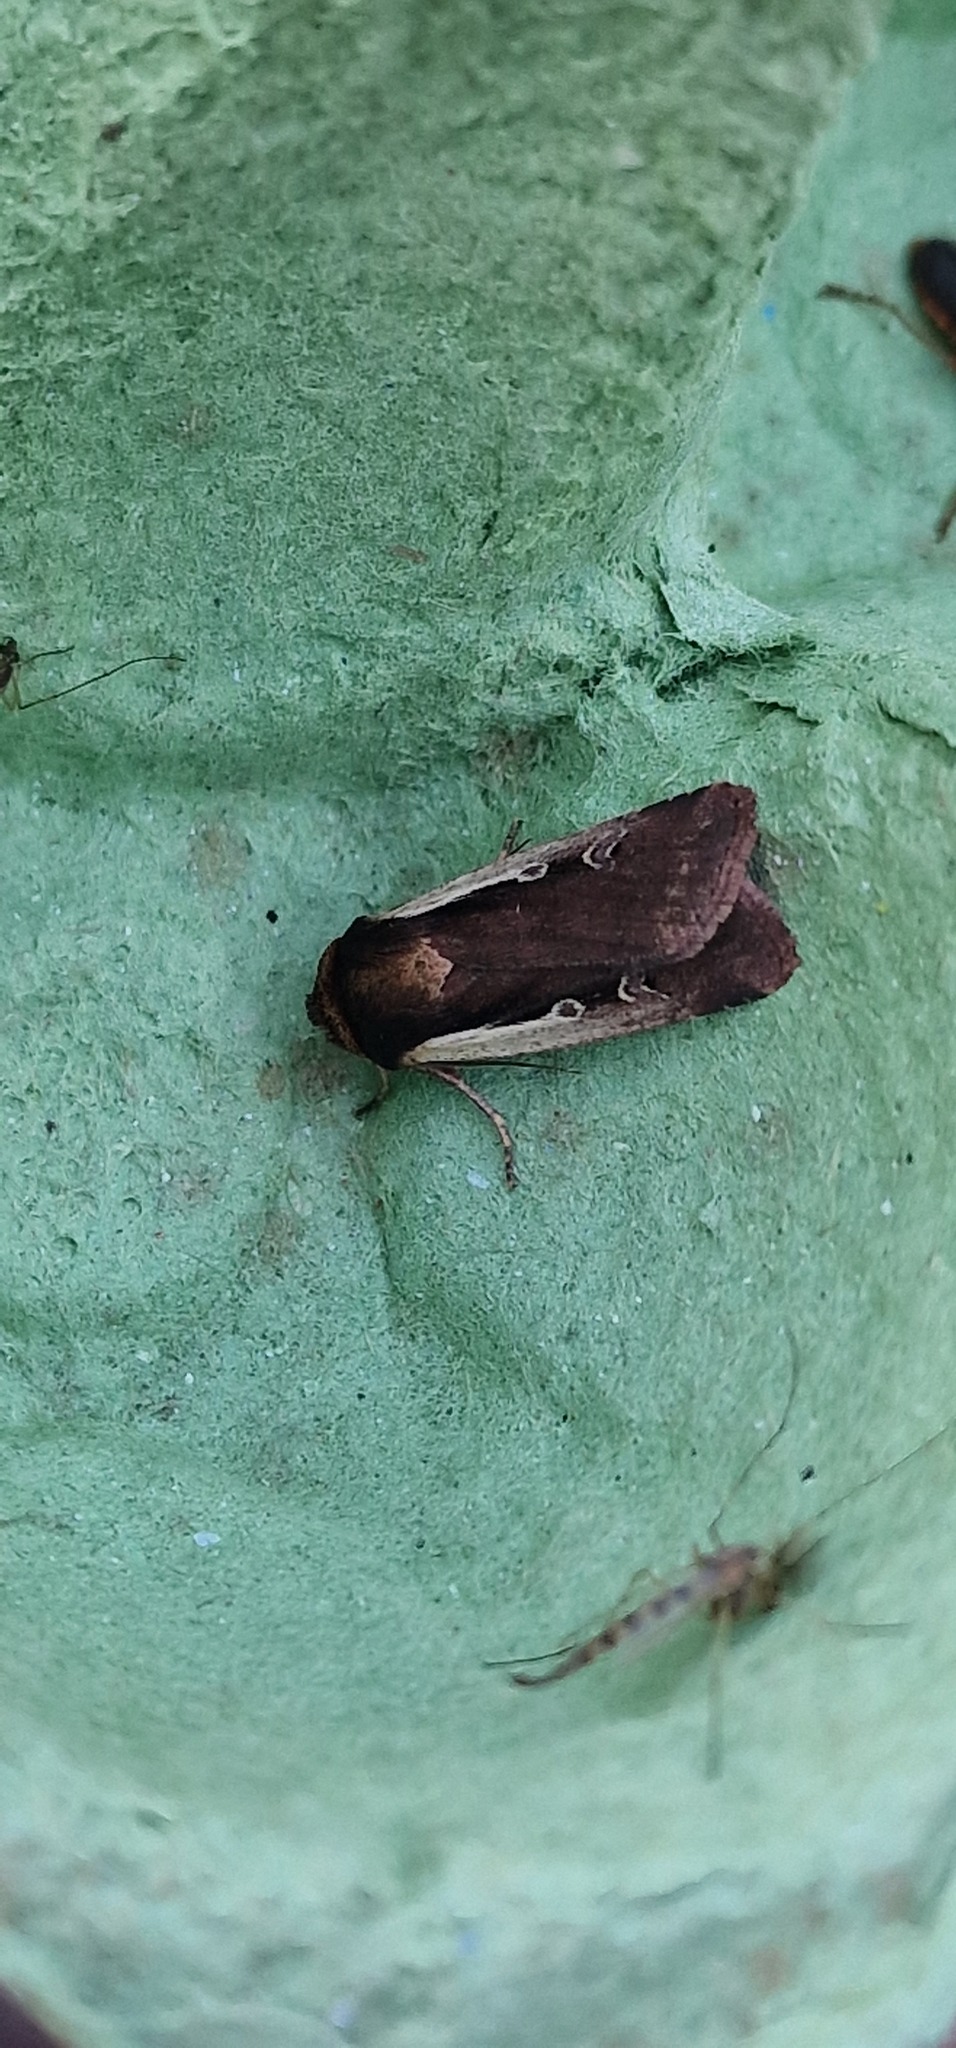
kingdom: Animalia
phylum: Arthropoda
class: Insecta
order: Lepidoptera
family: Noctuidae
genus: Ochropleura
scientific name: Ochropleura plecta
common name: Flame shoulder
